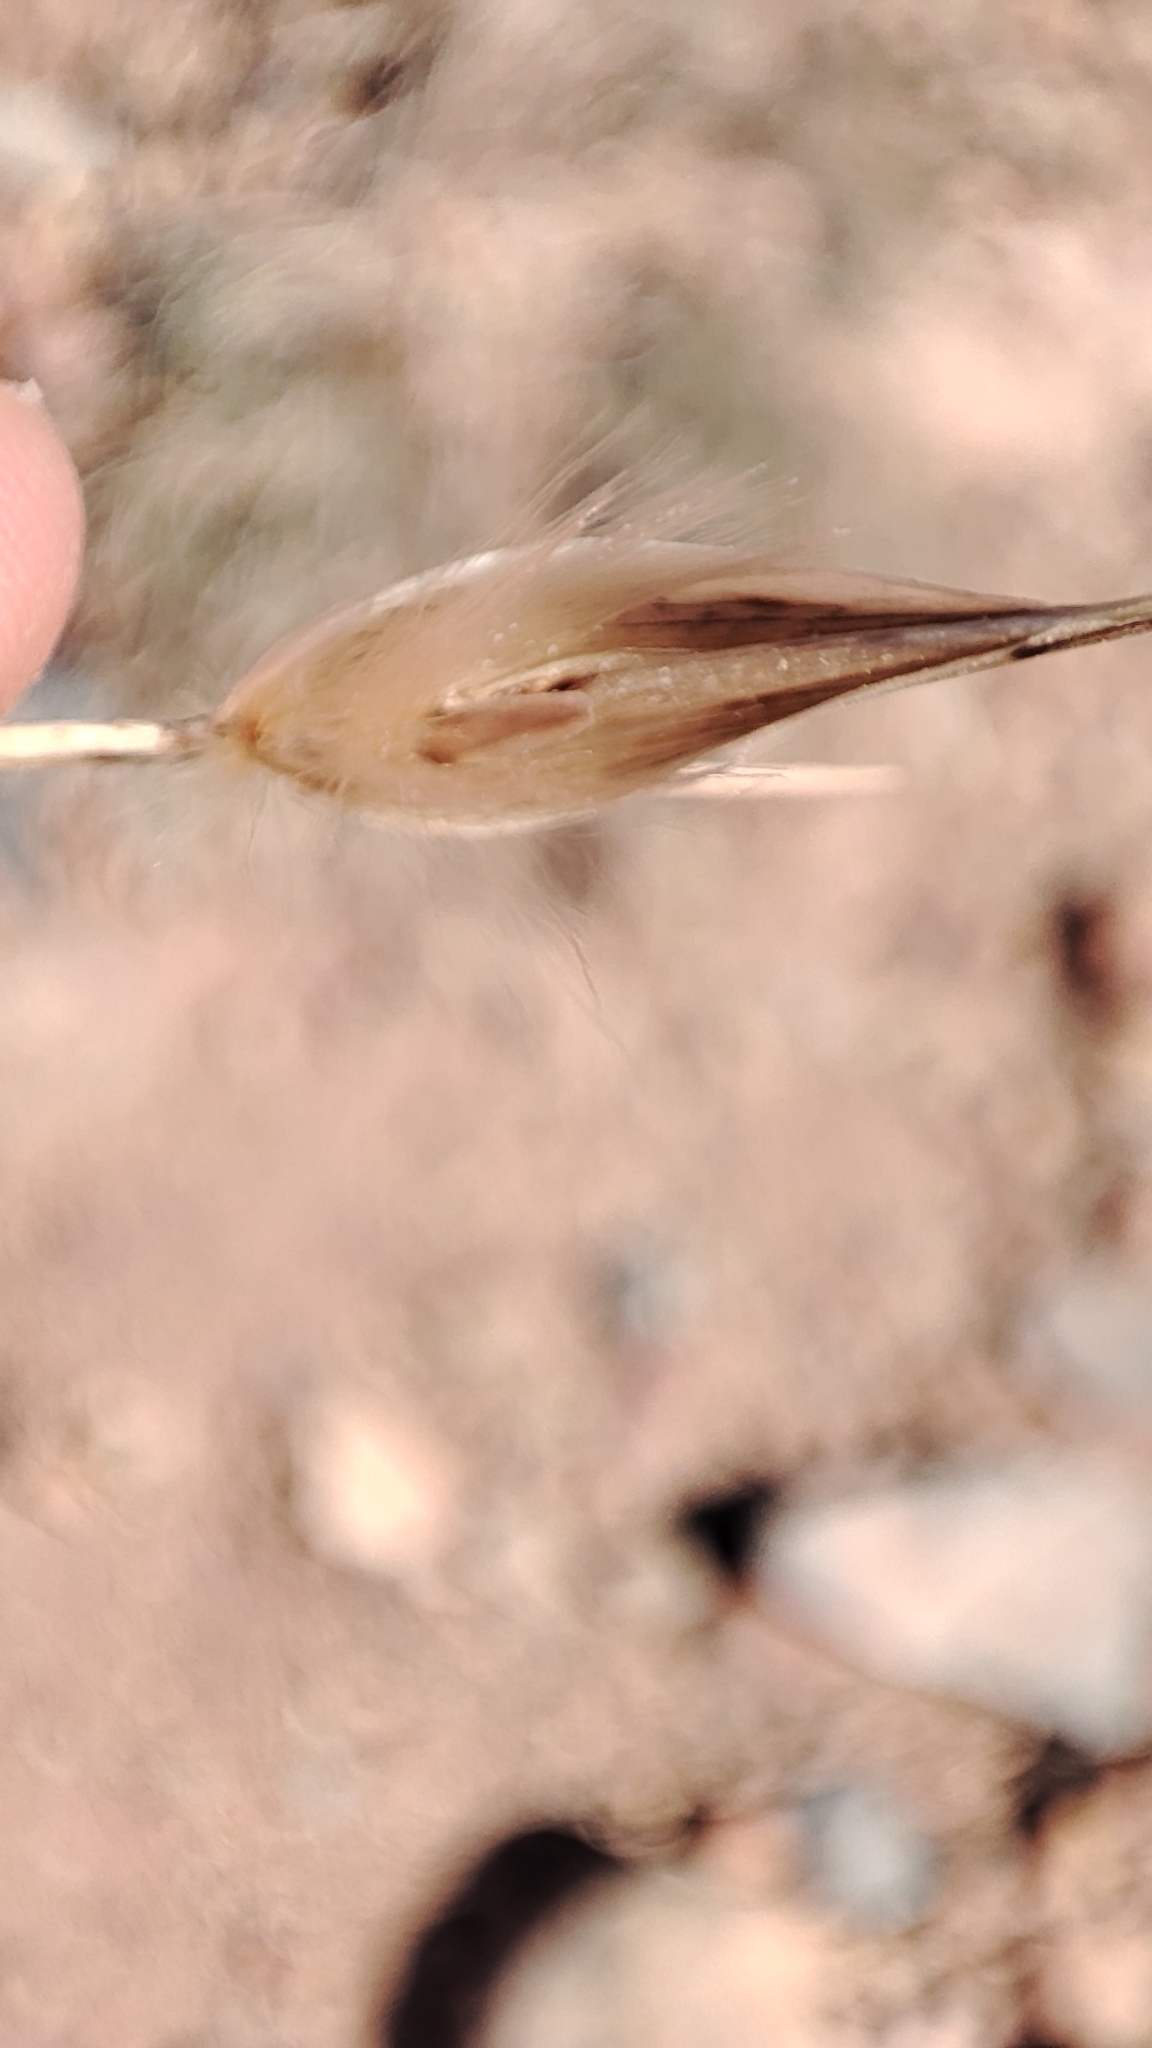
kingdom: Plantae
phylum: Tracheophyta
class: Liliopsida
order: Poales
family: Poaceae
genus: Lygeum
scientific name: Lygeum spartum
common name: Albardine
